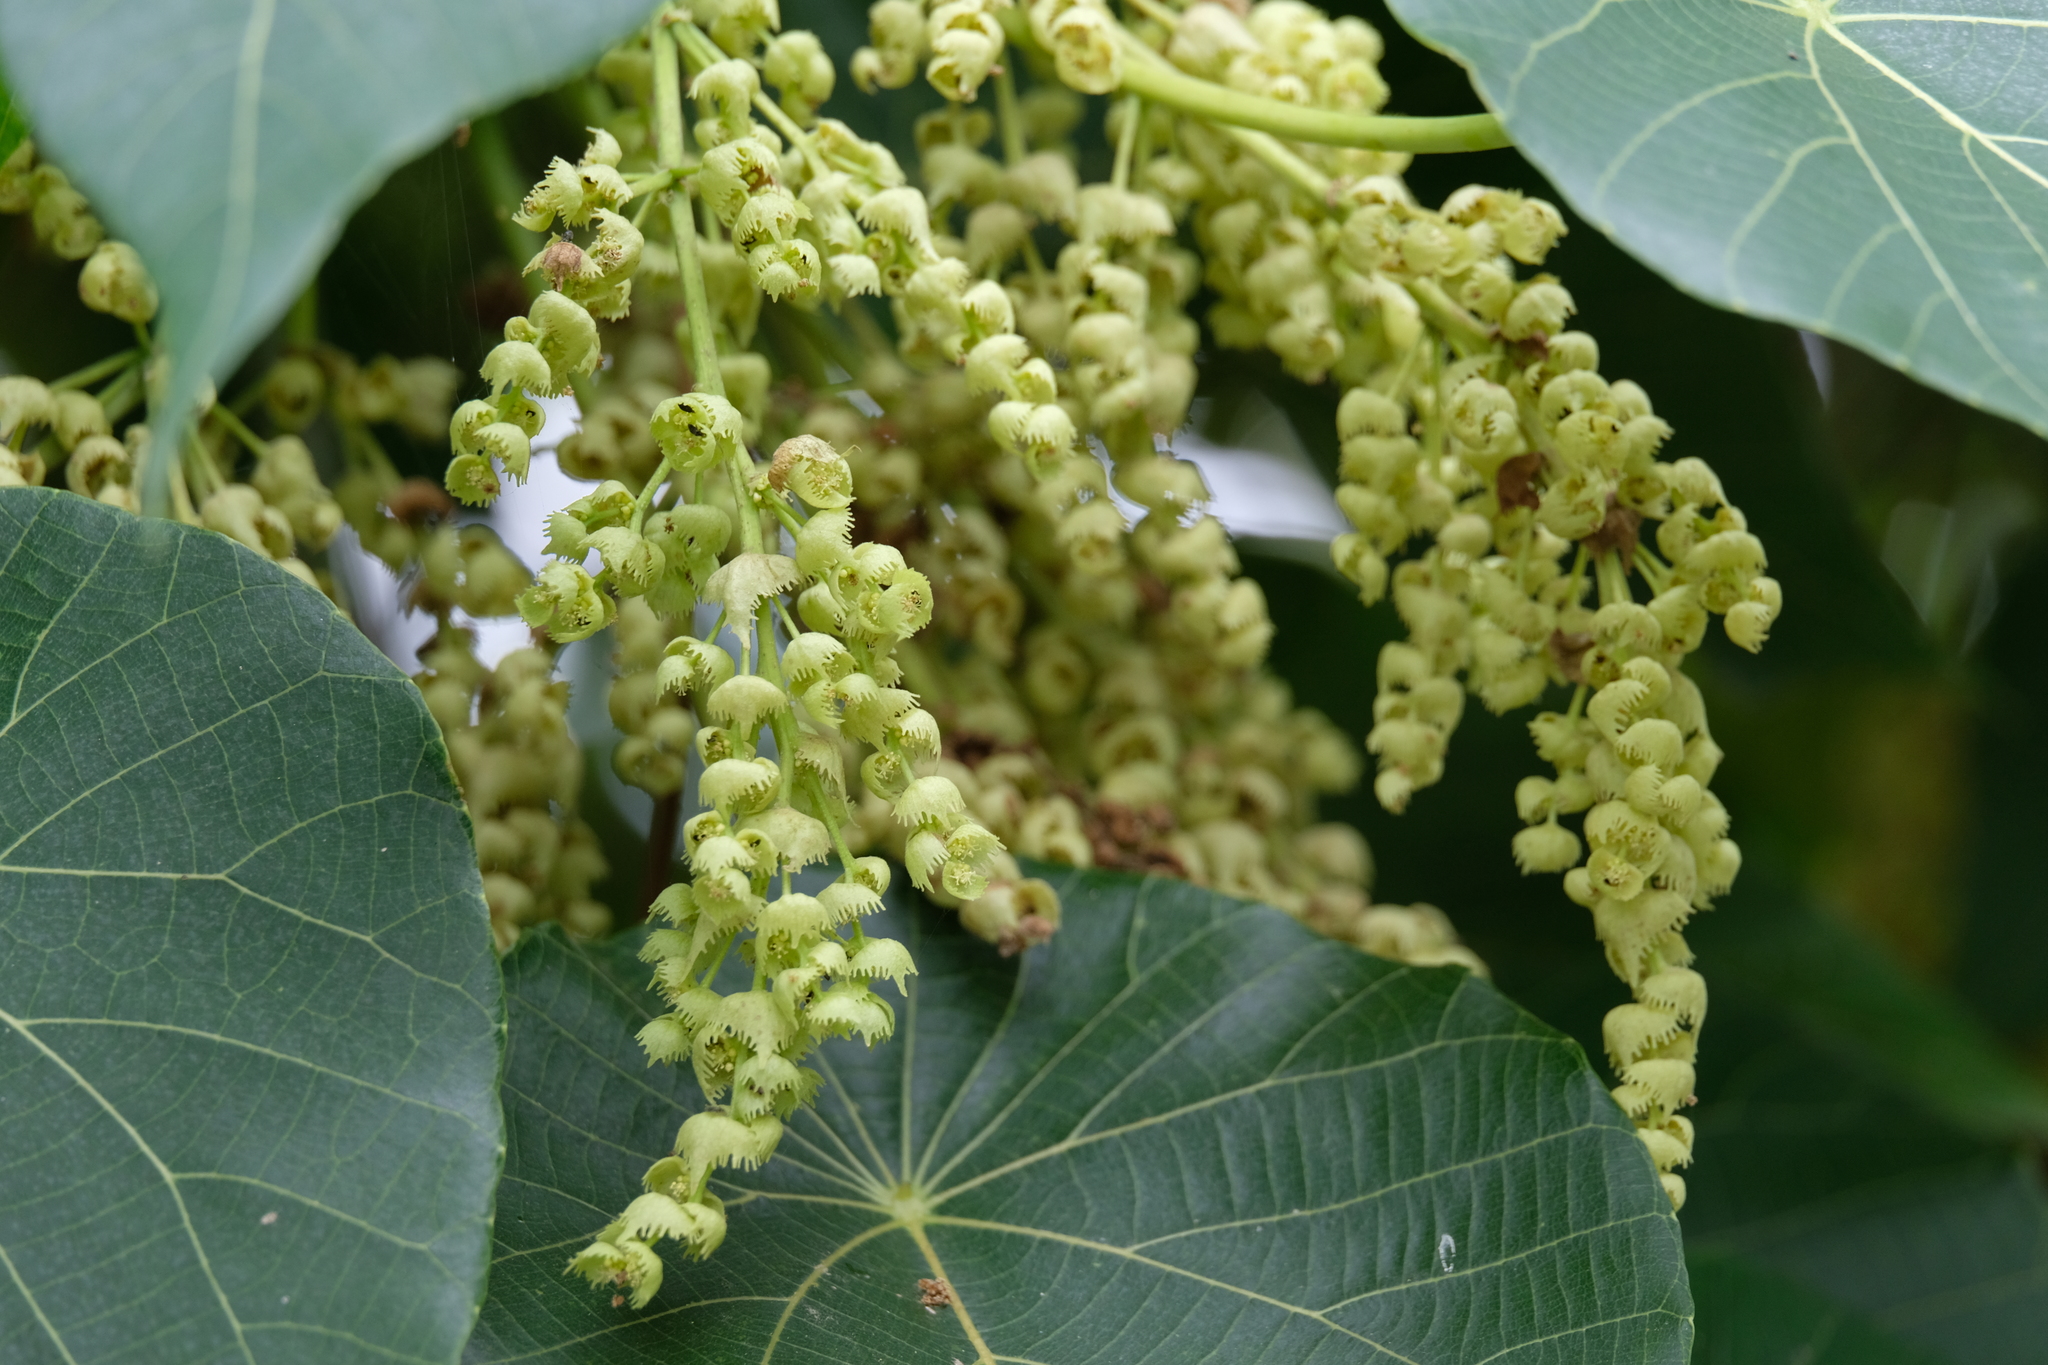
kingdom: Plantae
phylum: Tracheophyta
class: Magnoliopsida
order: Malpighiales
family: Euphorbiaceae
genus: Macaranga
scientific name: Macaranga tanarius
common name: Parasol leaf tree
